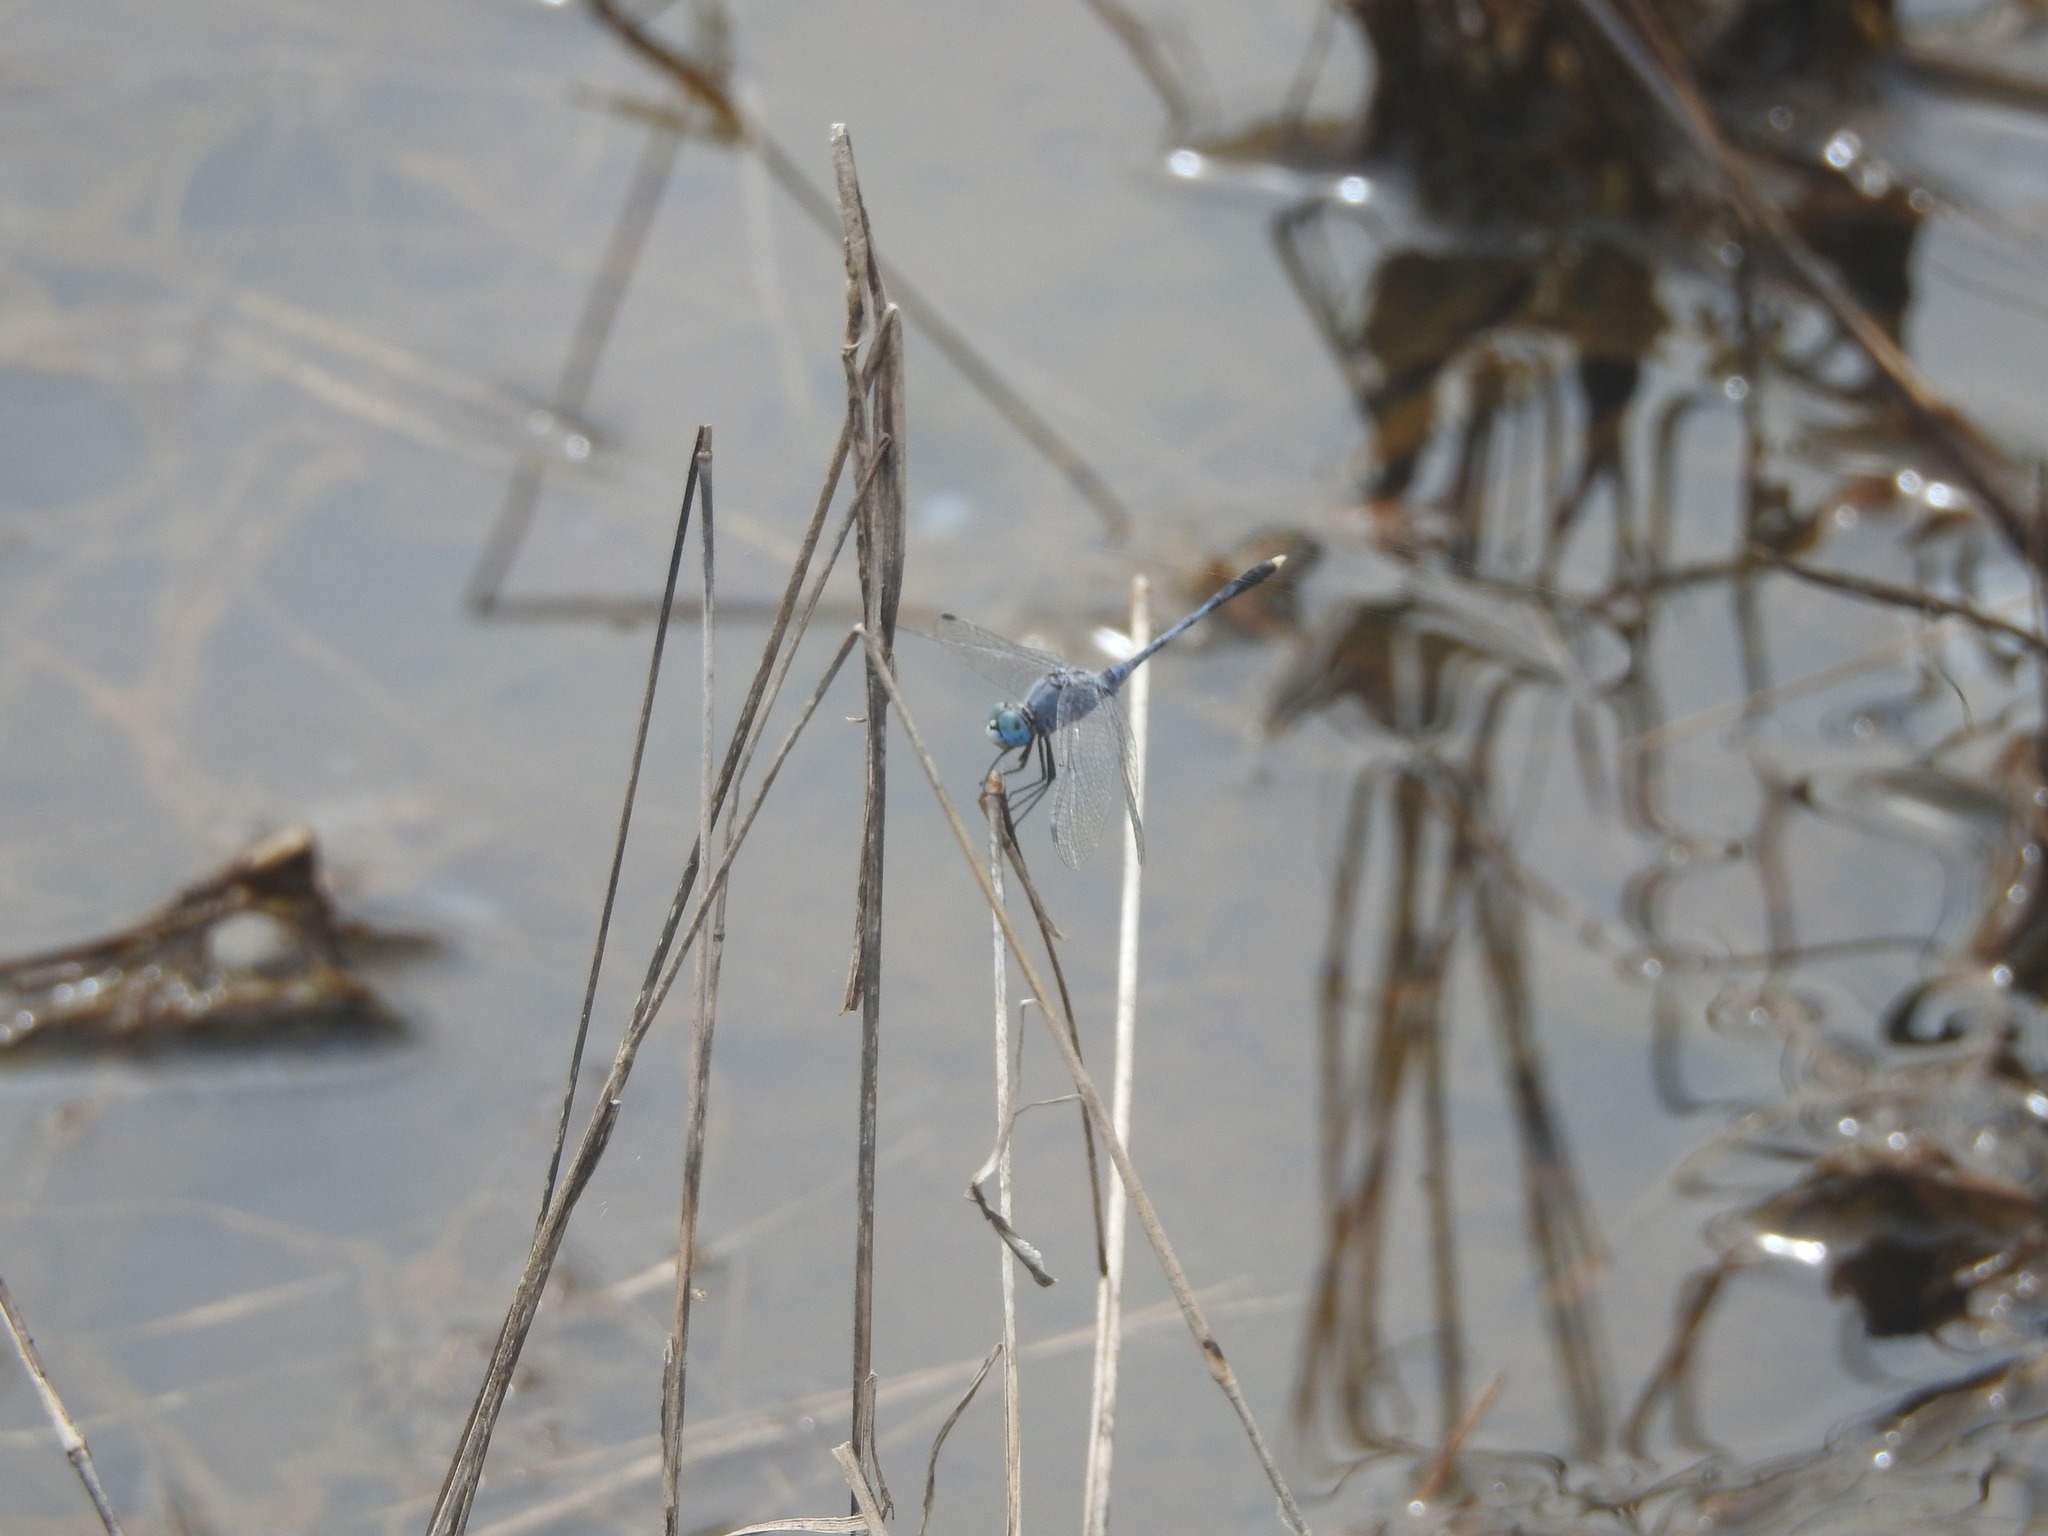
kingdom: Animalia
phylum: Arthropoda
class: Insecta
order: Odonata
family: Libellulidae
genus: Diplacodes
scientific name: Diplacodes trivialis
